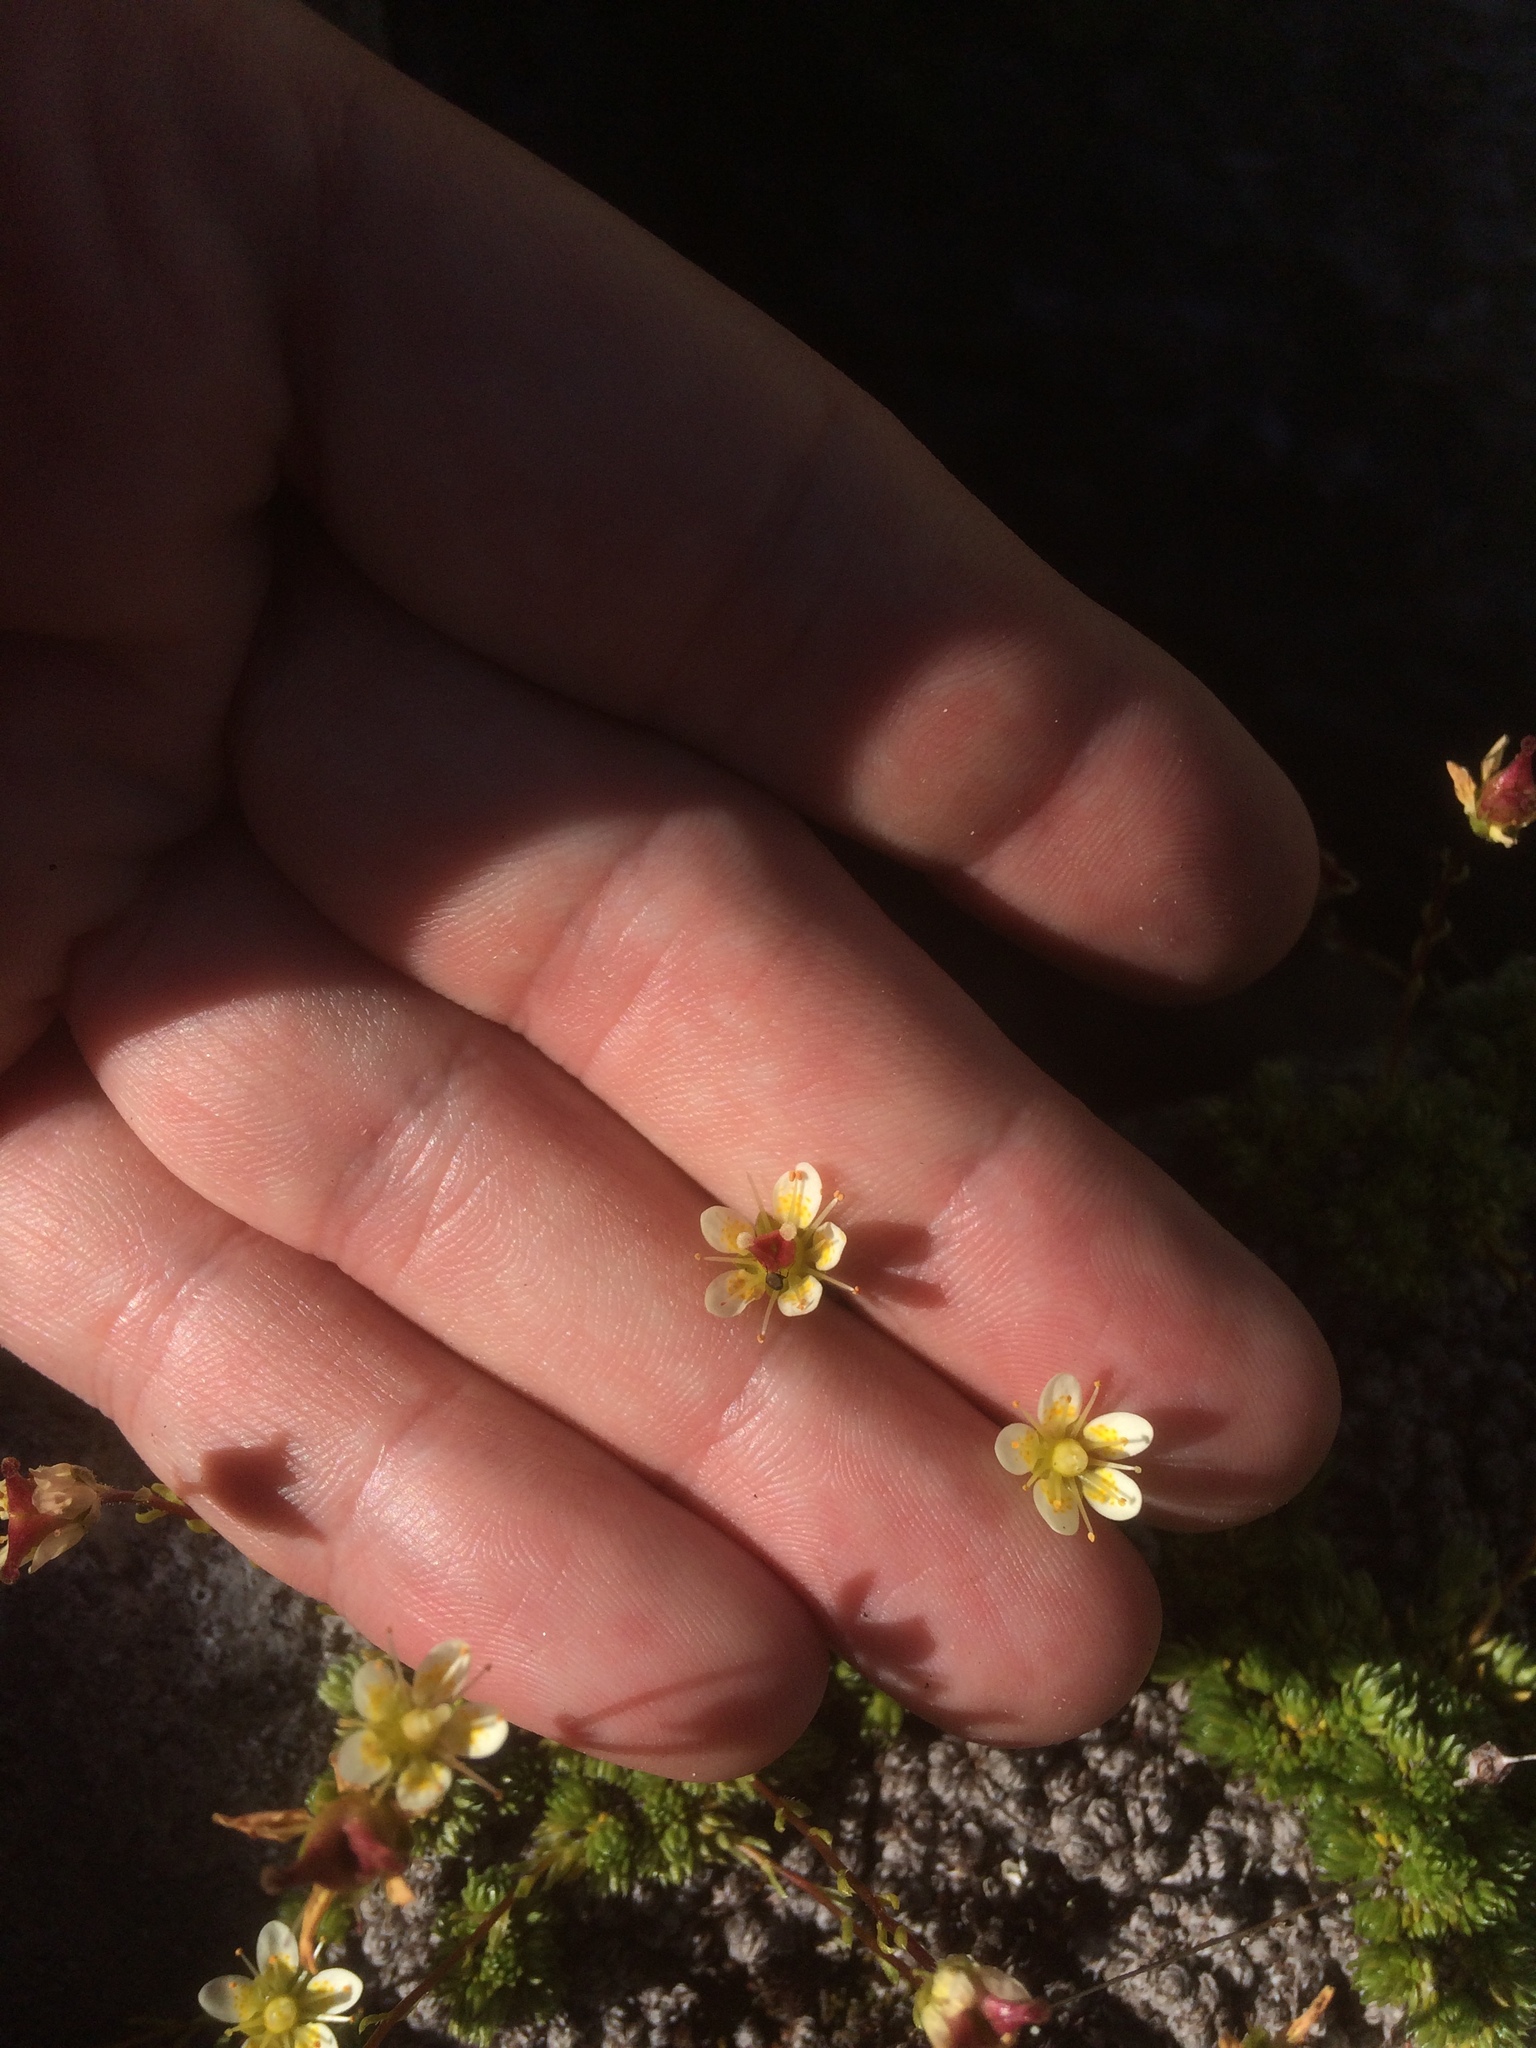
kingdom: Plantae
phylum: Tracheophyta
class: Magnoliopsida
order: Saxifragales
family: Saxifragaceae
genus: Saxifraga
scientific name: Saxifraga bryoides
